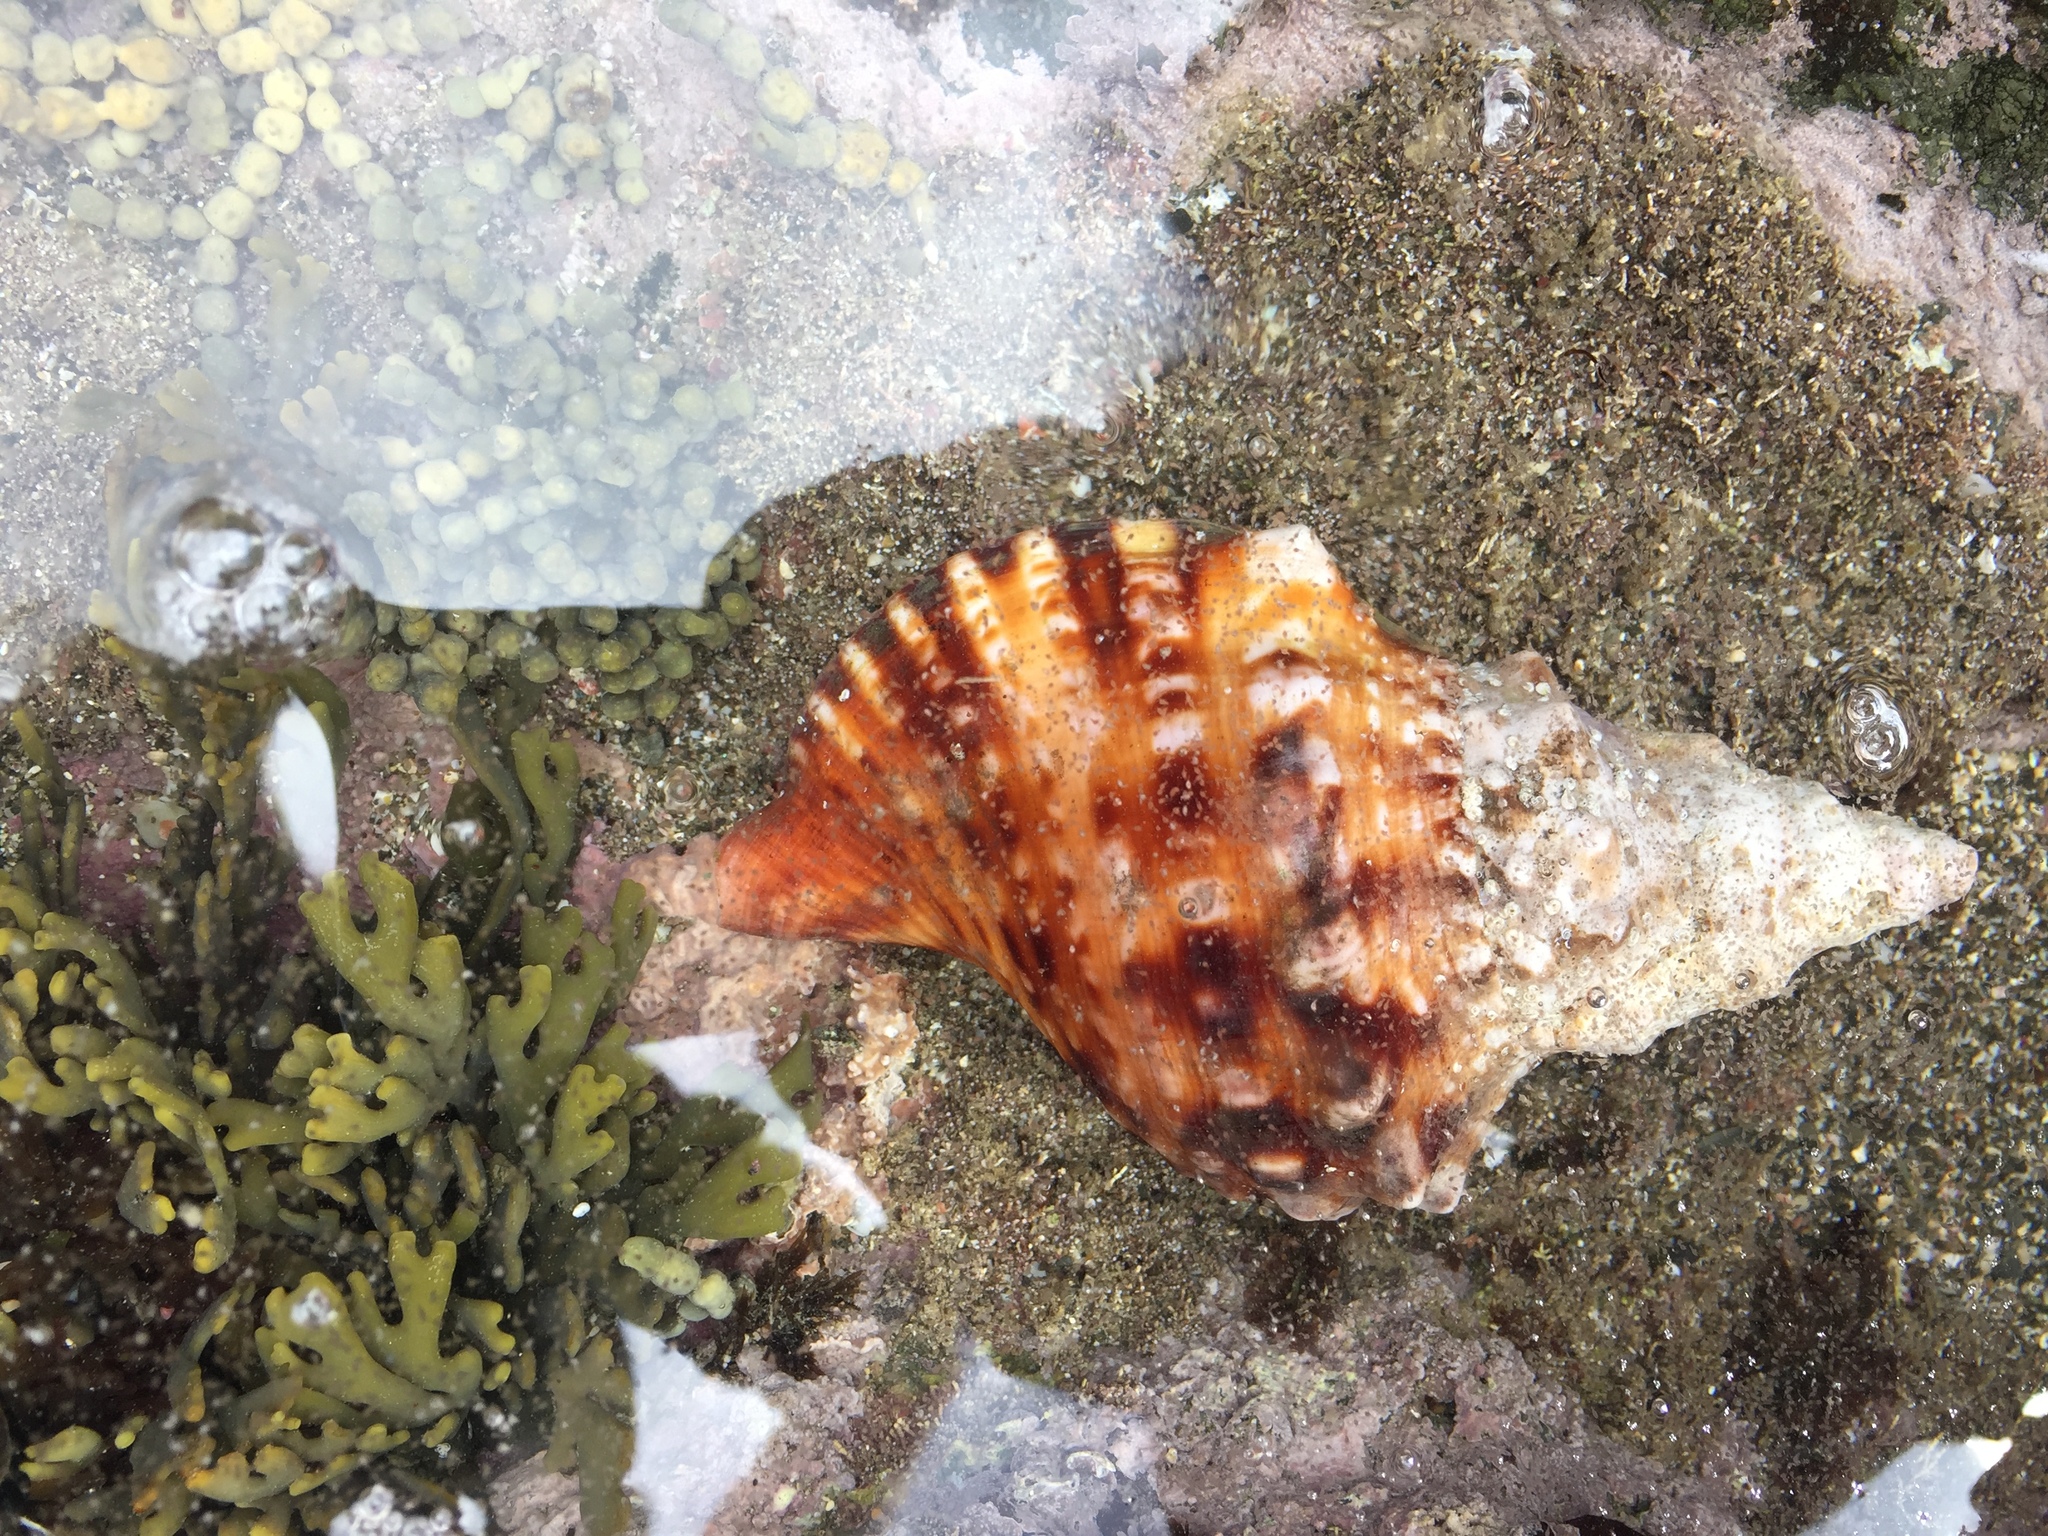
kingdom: Animalia
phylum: Mollusca
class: Gastropoda
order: Littorinimorpha
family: Charoniidae
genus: Charonia
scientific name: Charonia lampas
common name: Knobbed triton
